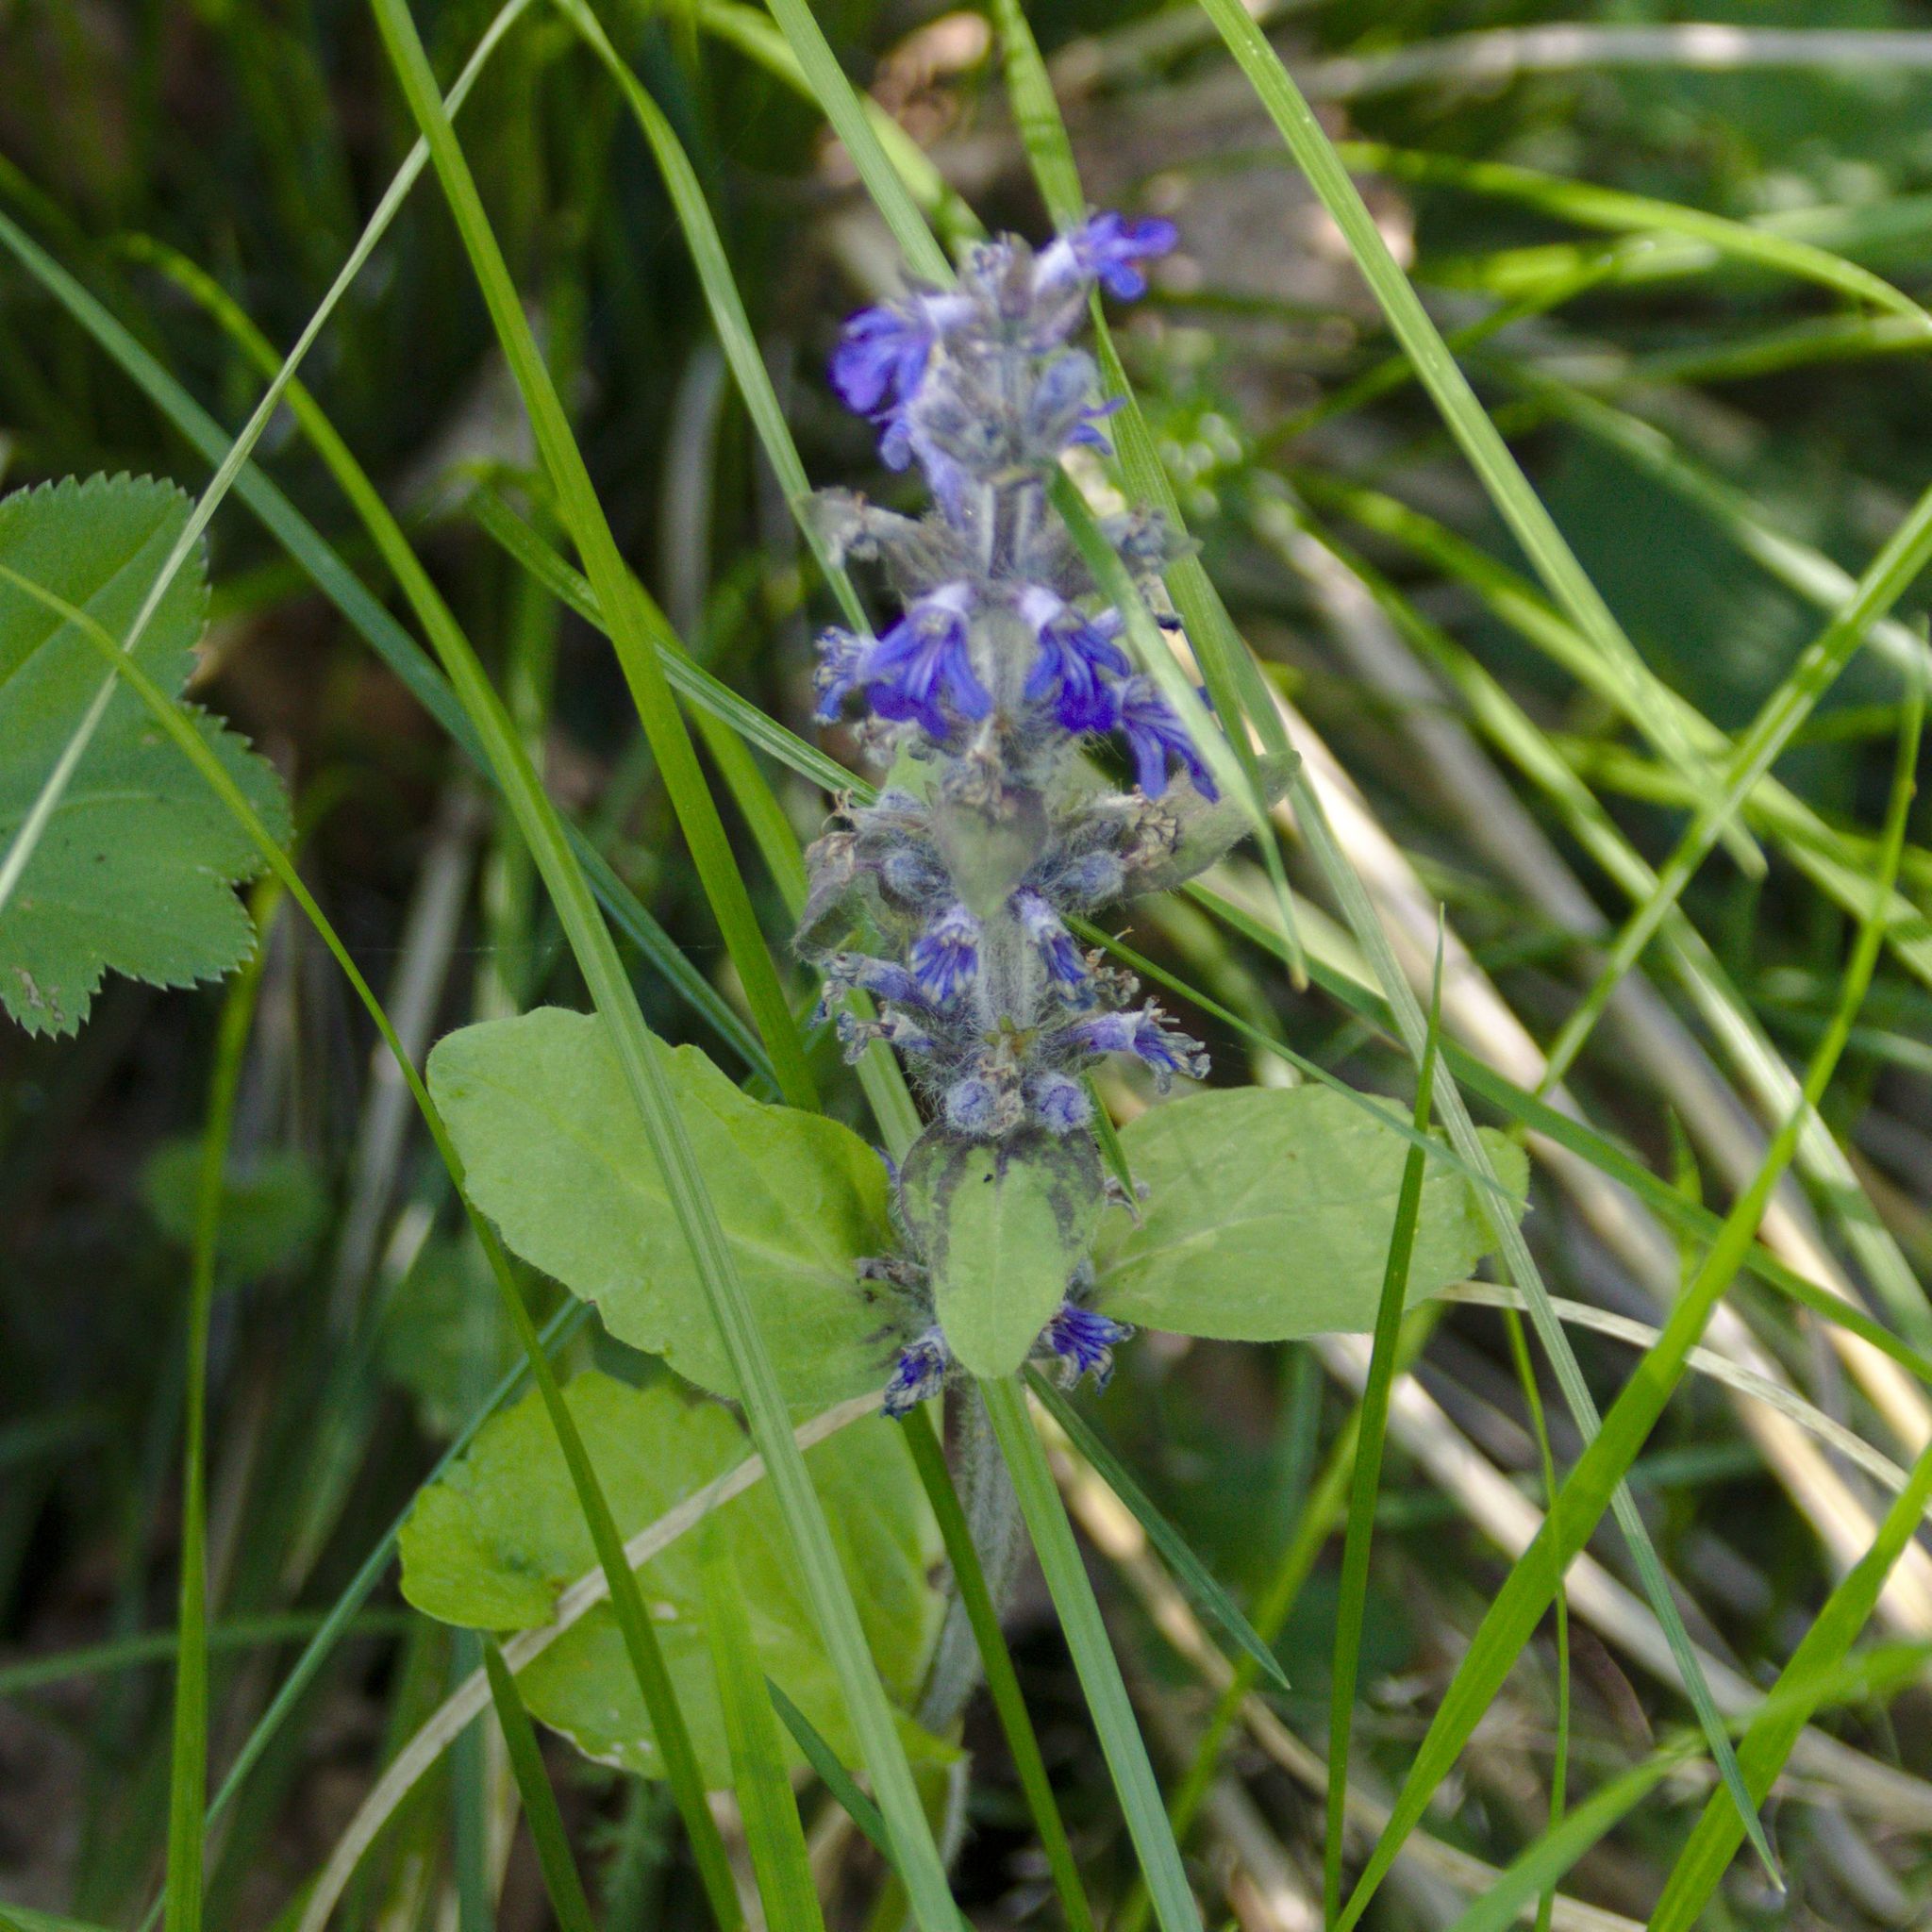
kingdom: Plantae
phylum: Tracheophyta
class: Magnoliopsida
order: Lamiales
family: Lamiaceae
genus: Ajuga
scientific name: Ajuga reptans
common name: Bugle
